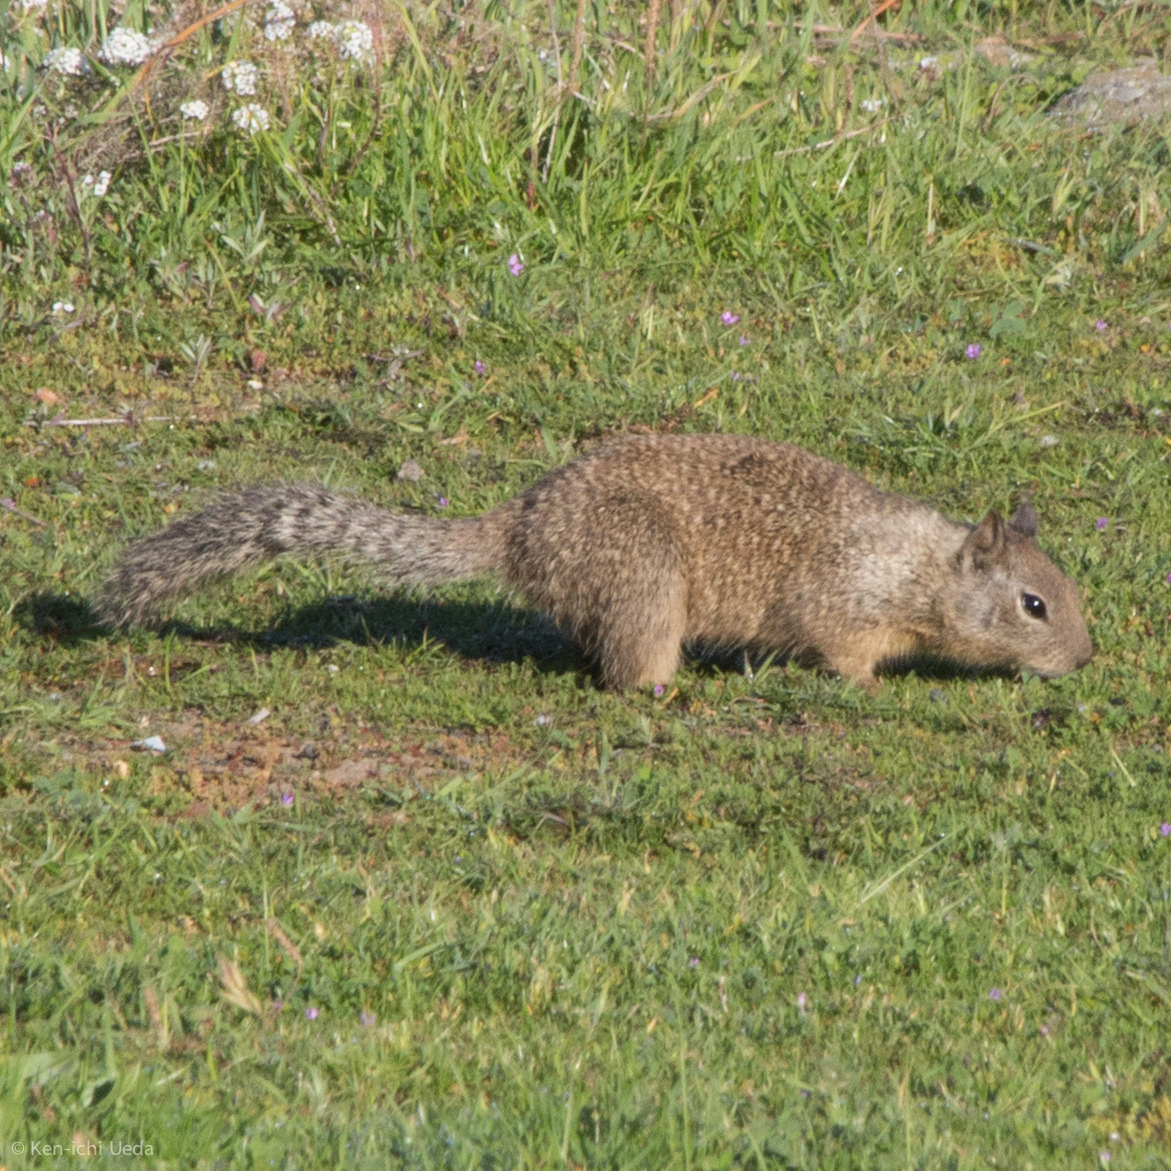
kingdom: Animalia
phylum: Chordata
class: Mammalia
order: Rodentia
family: Sciuridae
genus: Otospermophilus
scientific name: Otospermophilus beecheyi
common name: California ground squirrel
